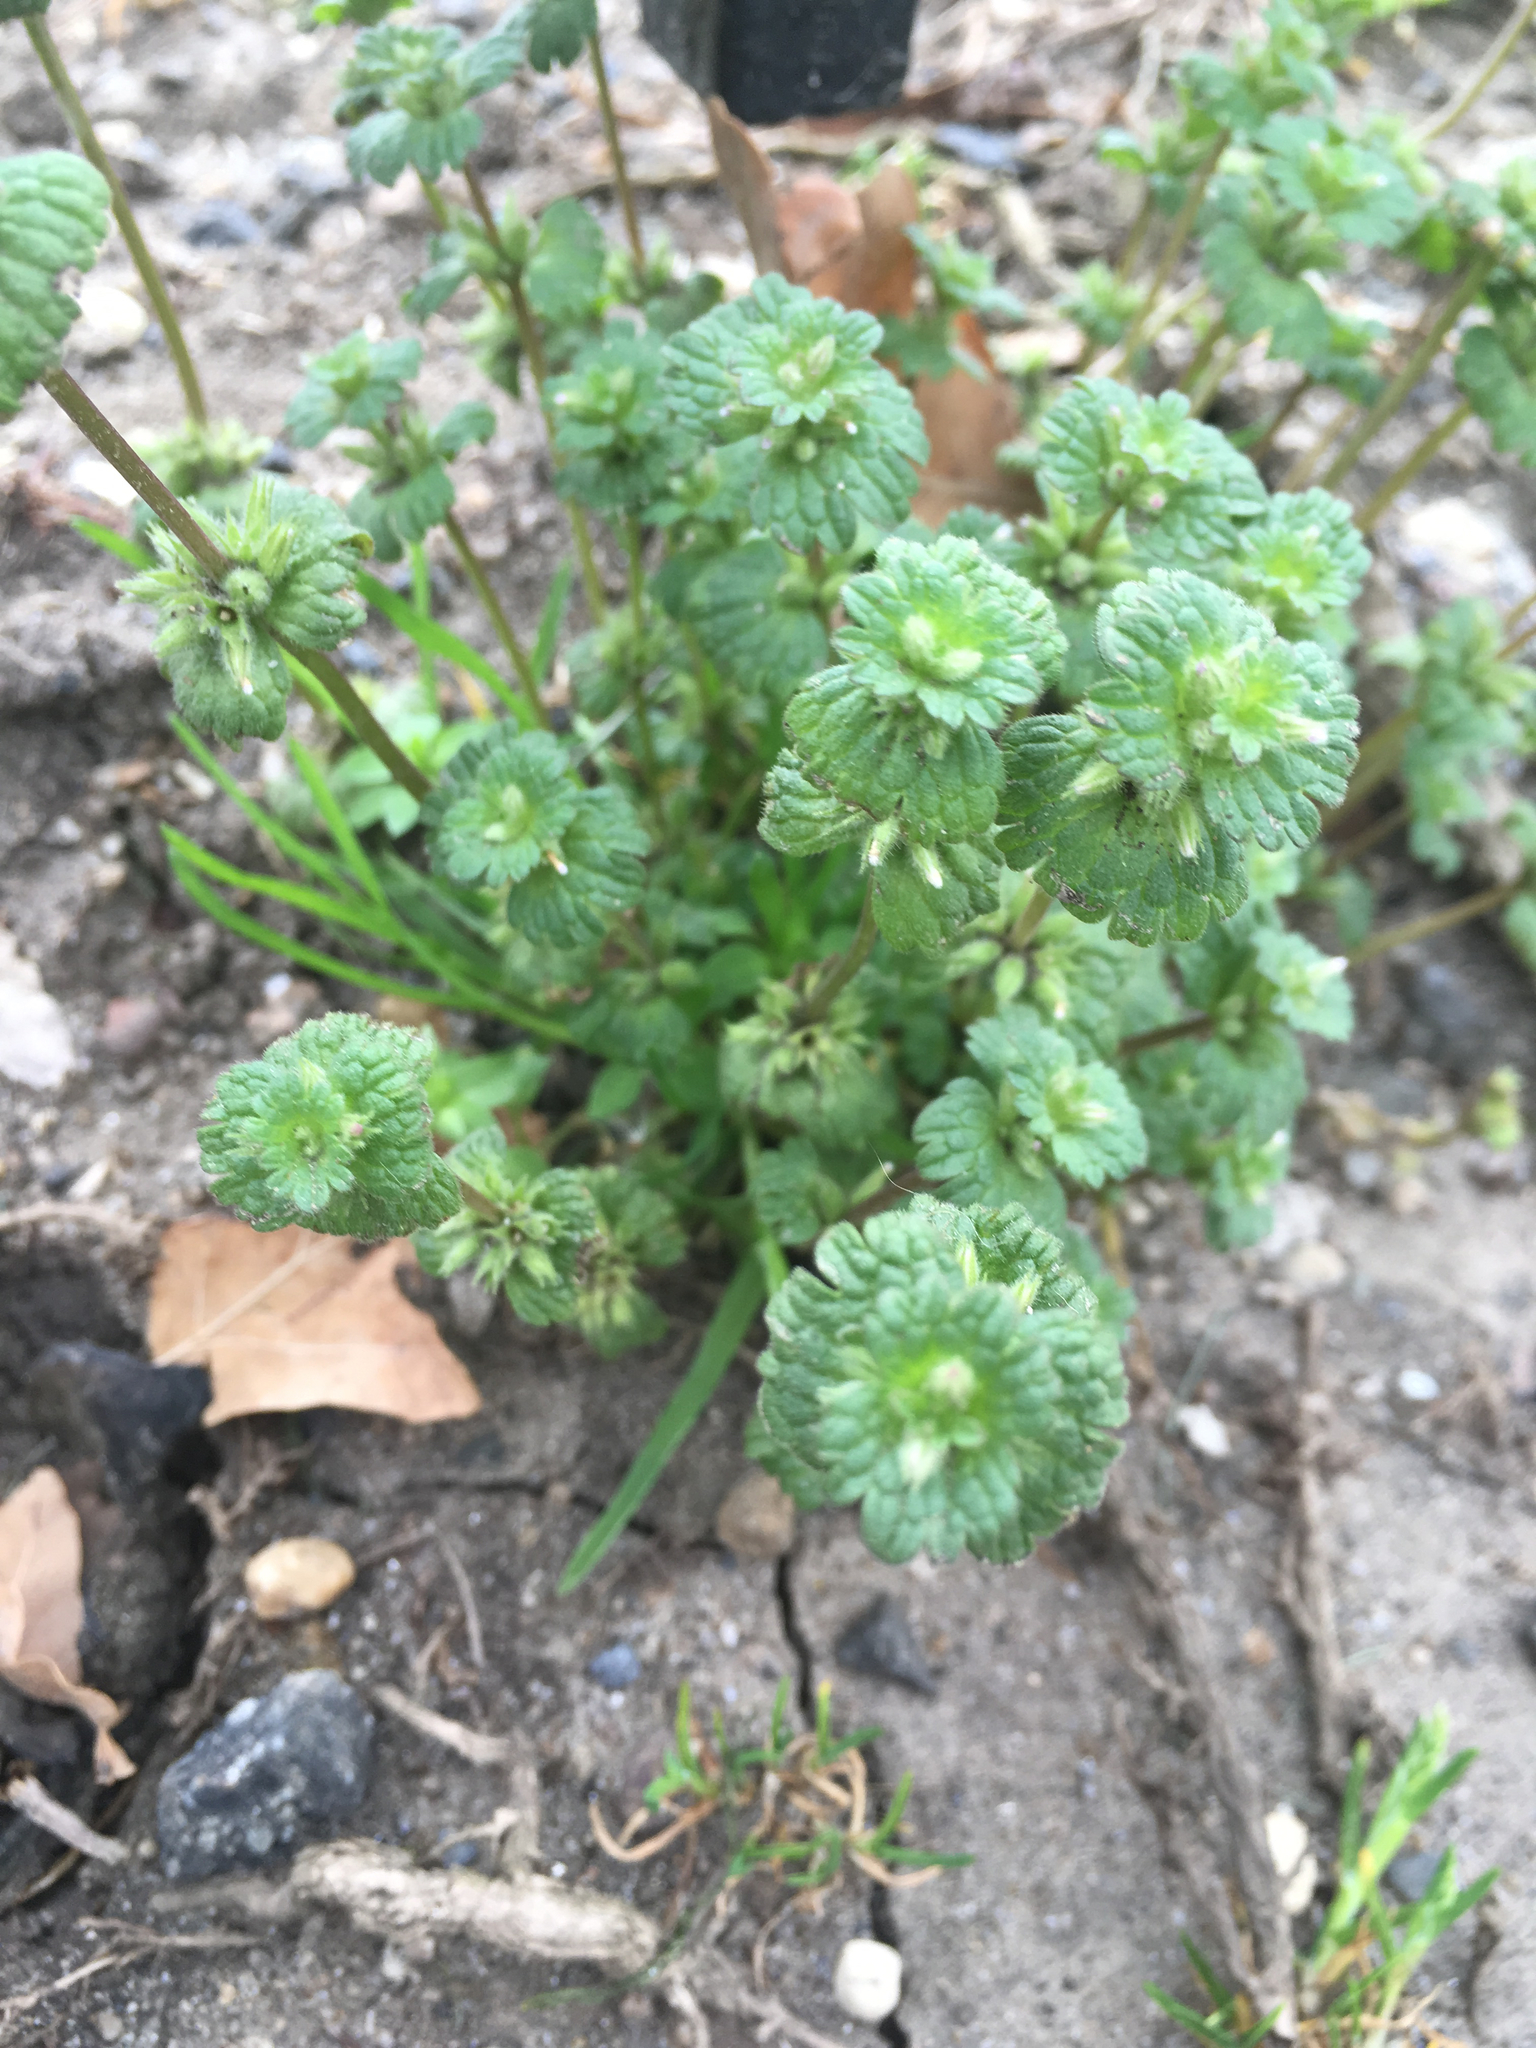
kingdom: Plantae
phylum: Tracheophyta
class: Magnoliopsida
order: Lamiales
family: Lamiaceae
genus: Lamium
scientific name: Lamium amplexicaule
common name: Henbit dead-nettle
